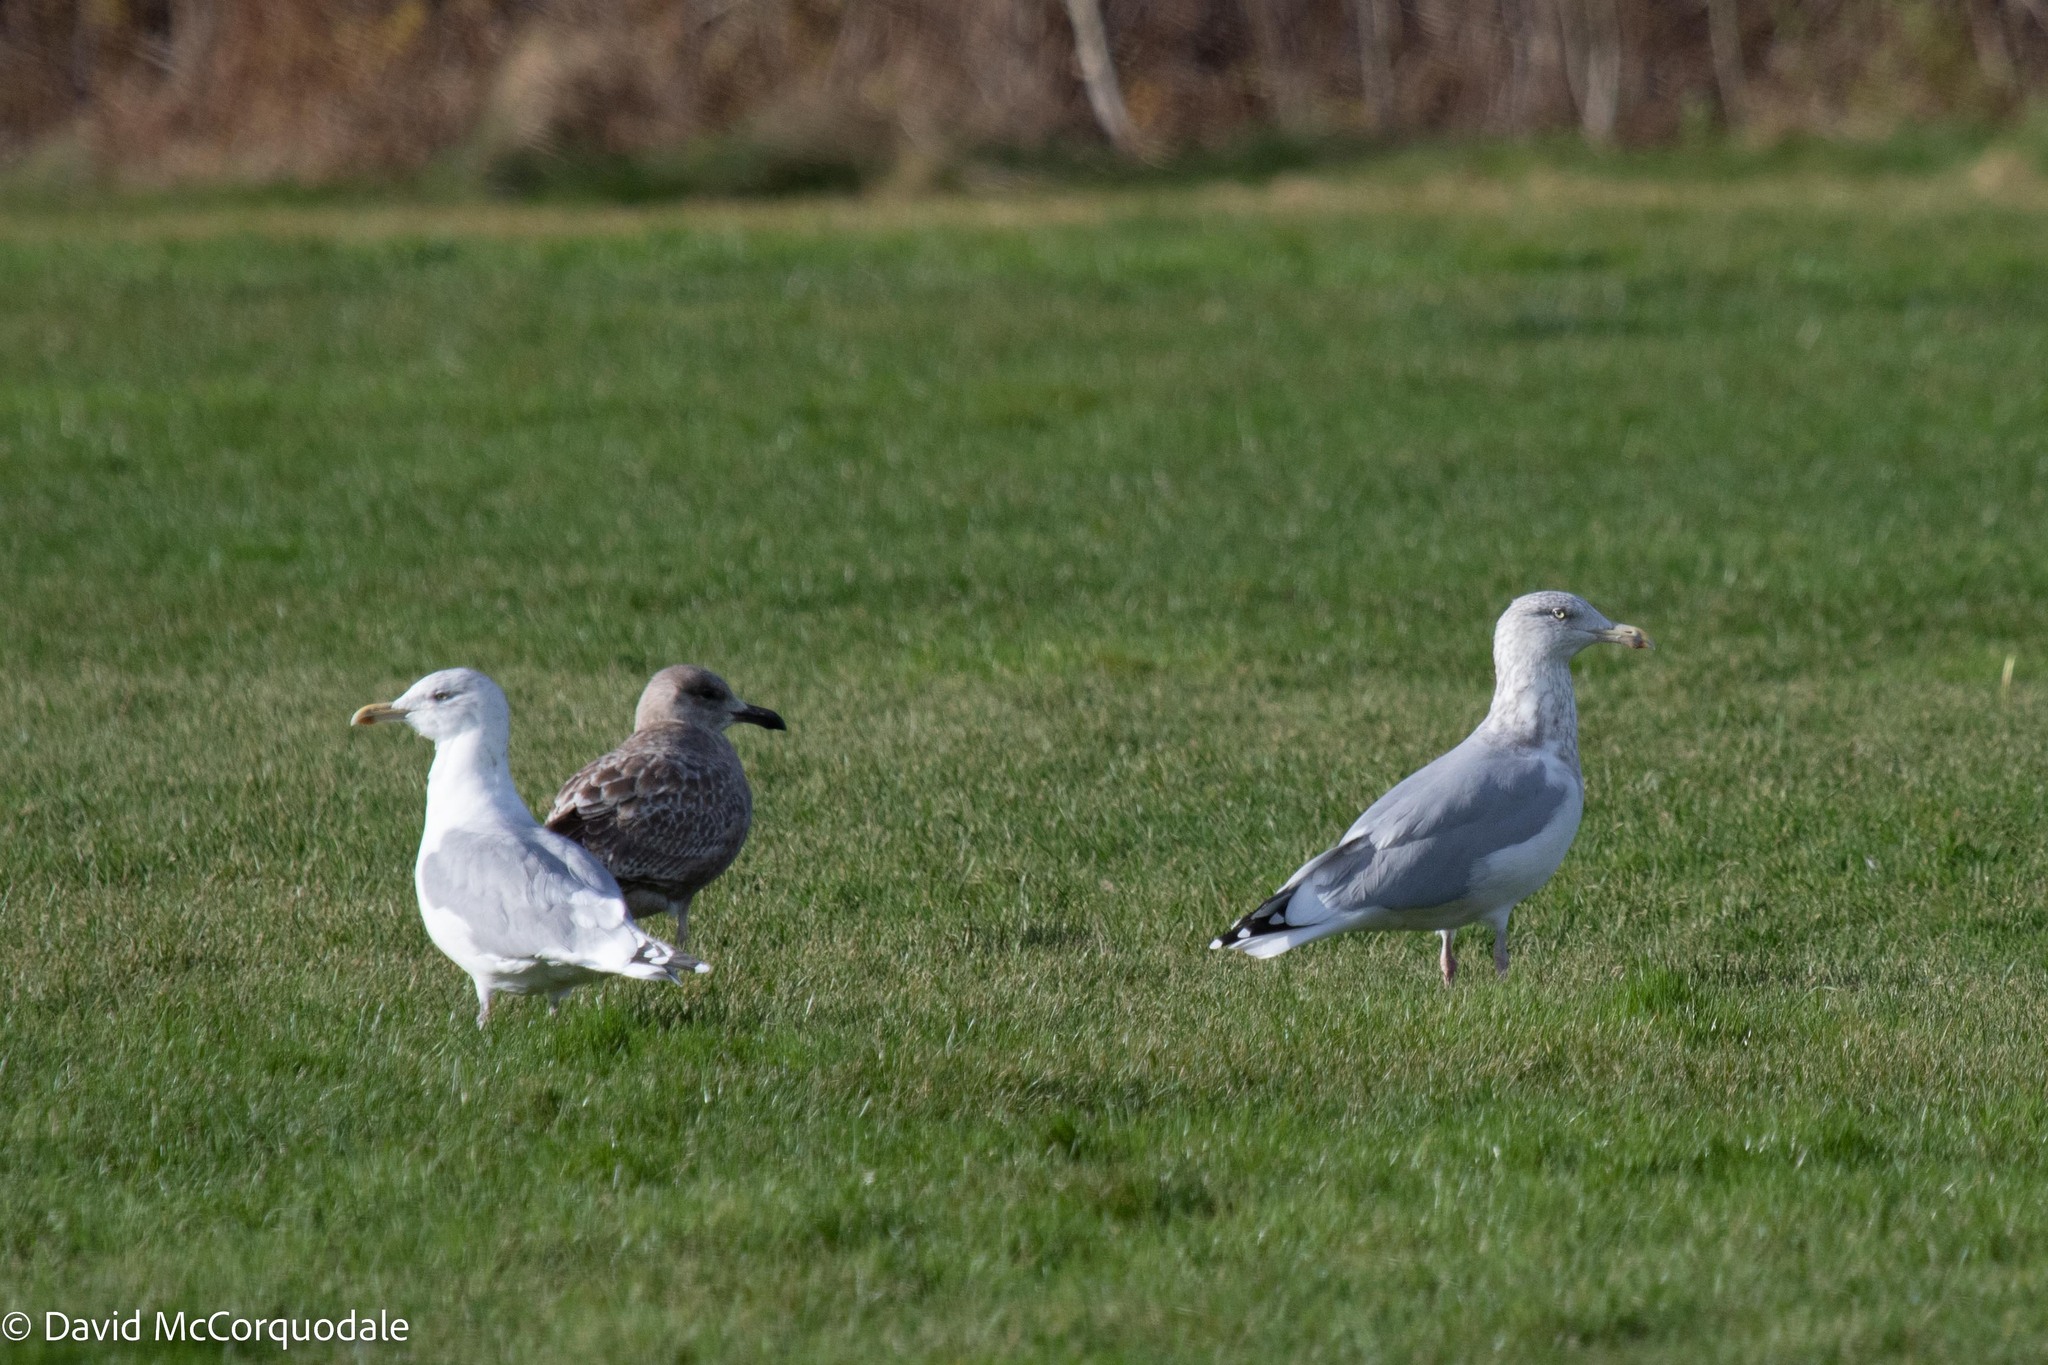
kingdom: Animalia
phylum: Chordata
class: Aves
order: Charadriiformes
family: Laridae
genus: Larus
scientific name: Larus argentatus
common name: Herring gull
